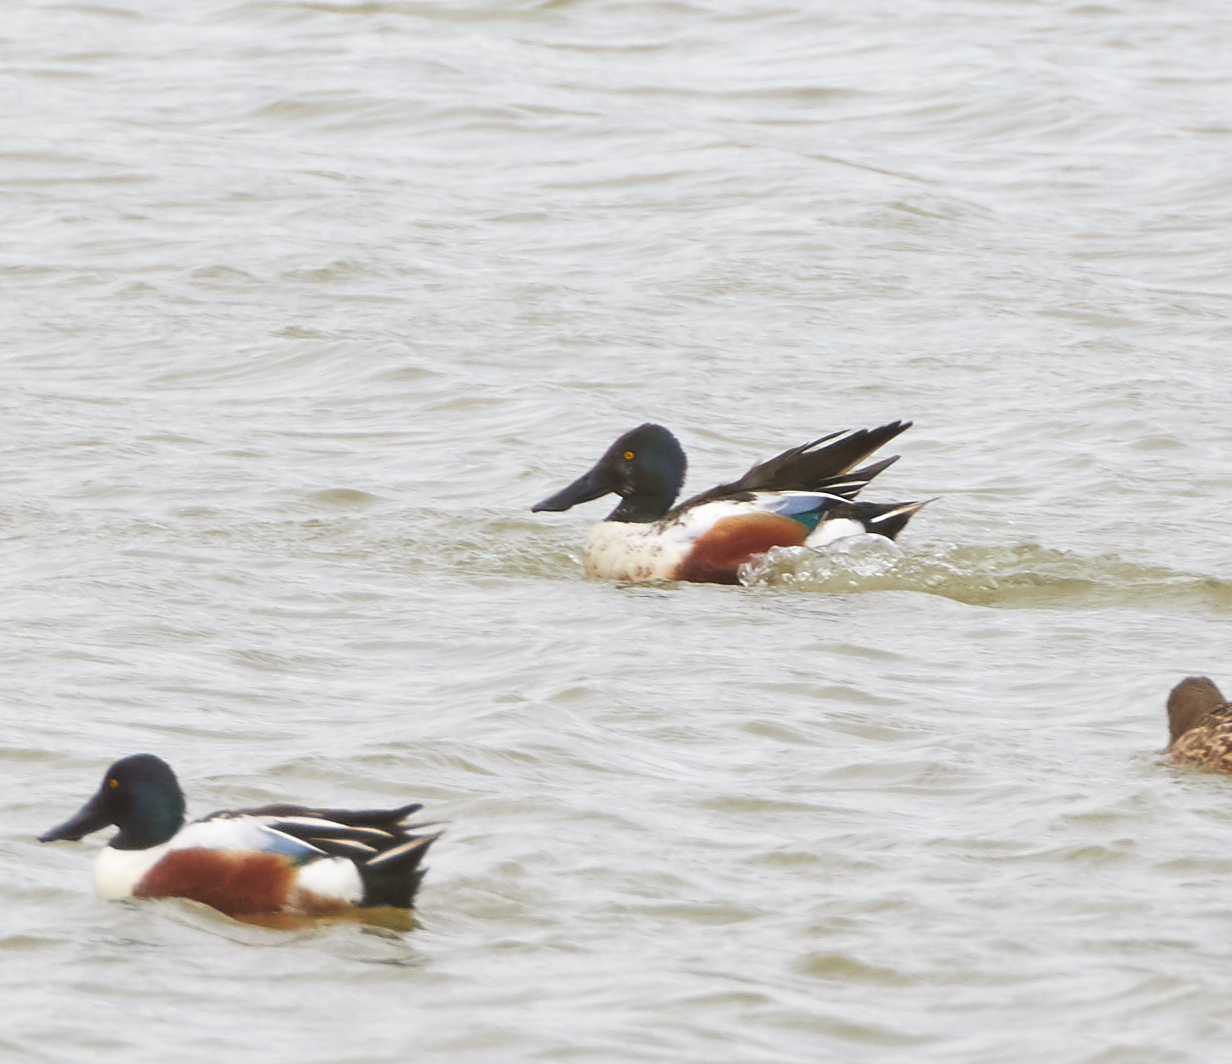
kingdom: Animalia
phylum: Chordata
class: Aves
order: Anseriformes
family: Anatidae
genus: Spatula
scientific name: Spatula clypeata
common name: Northern shoveler
